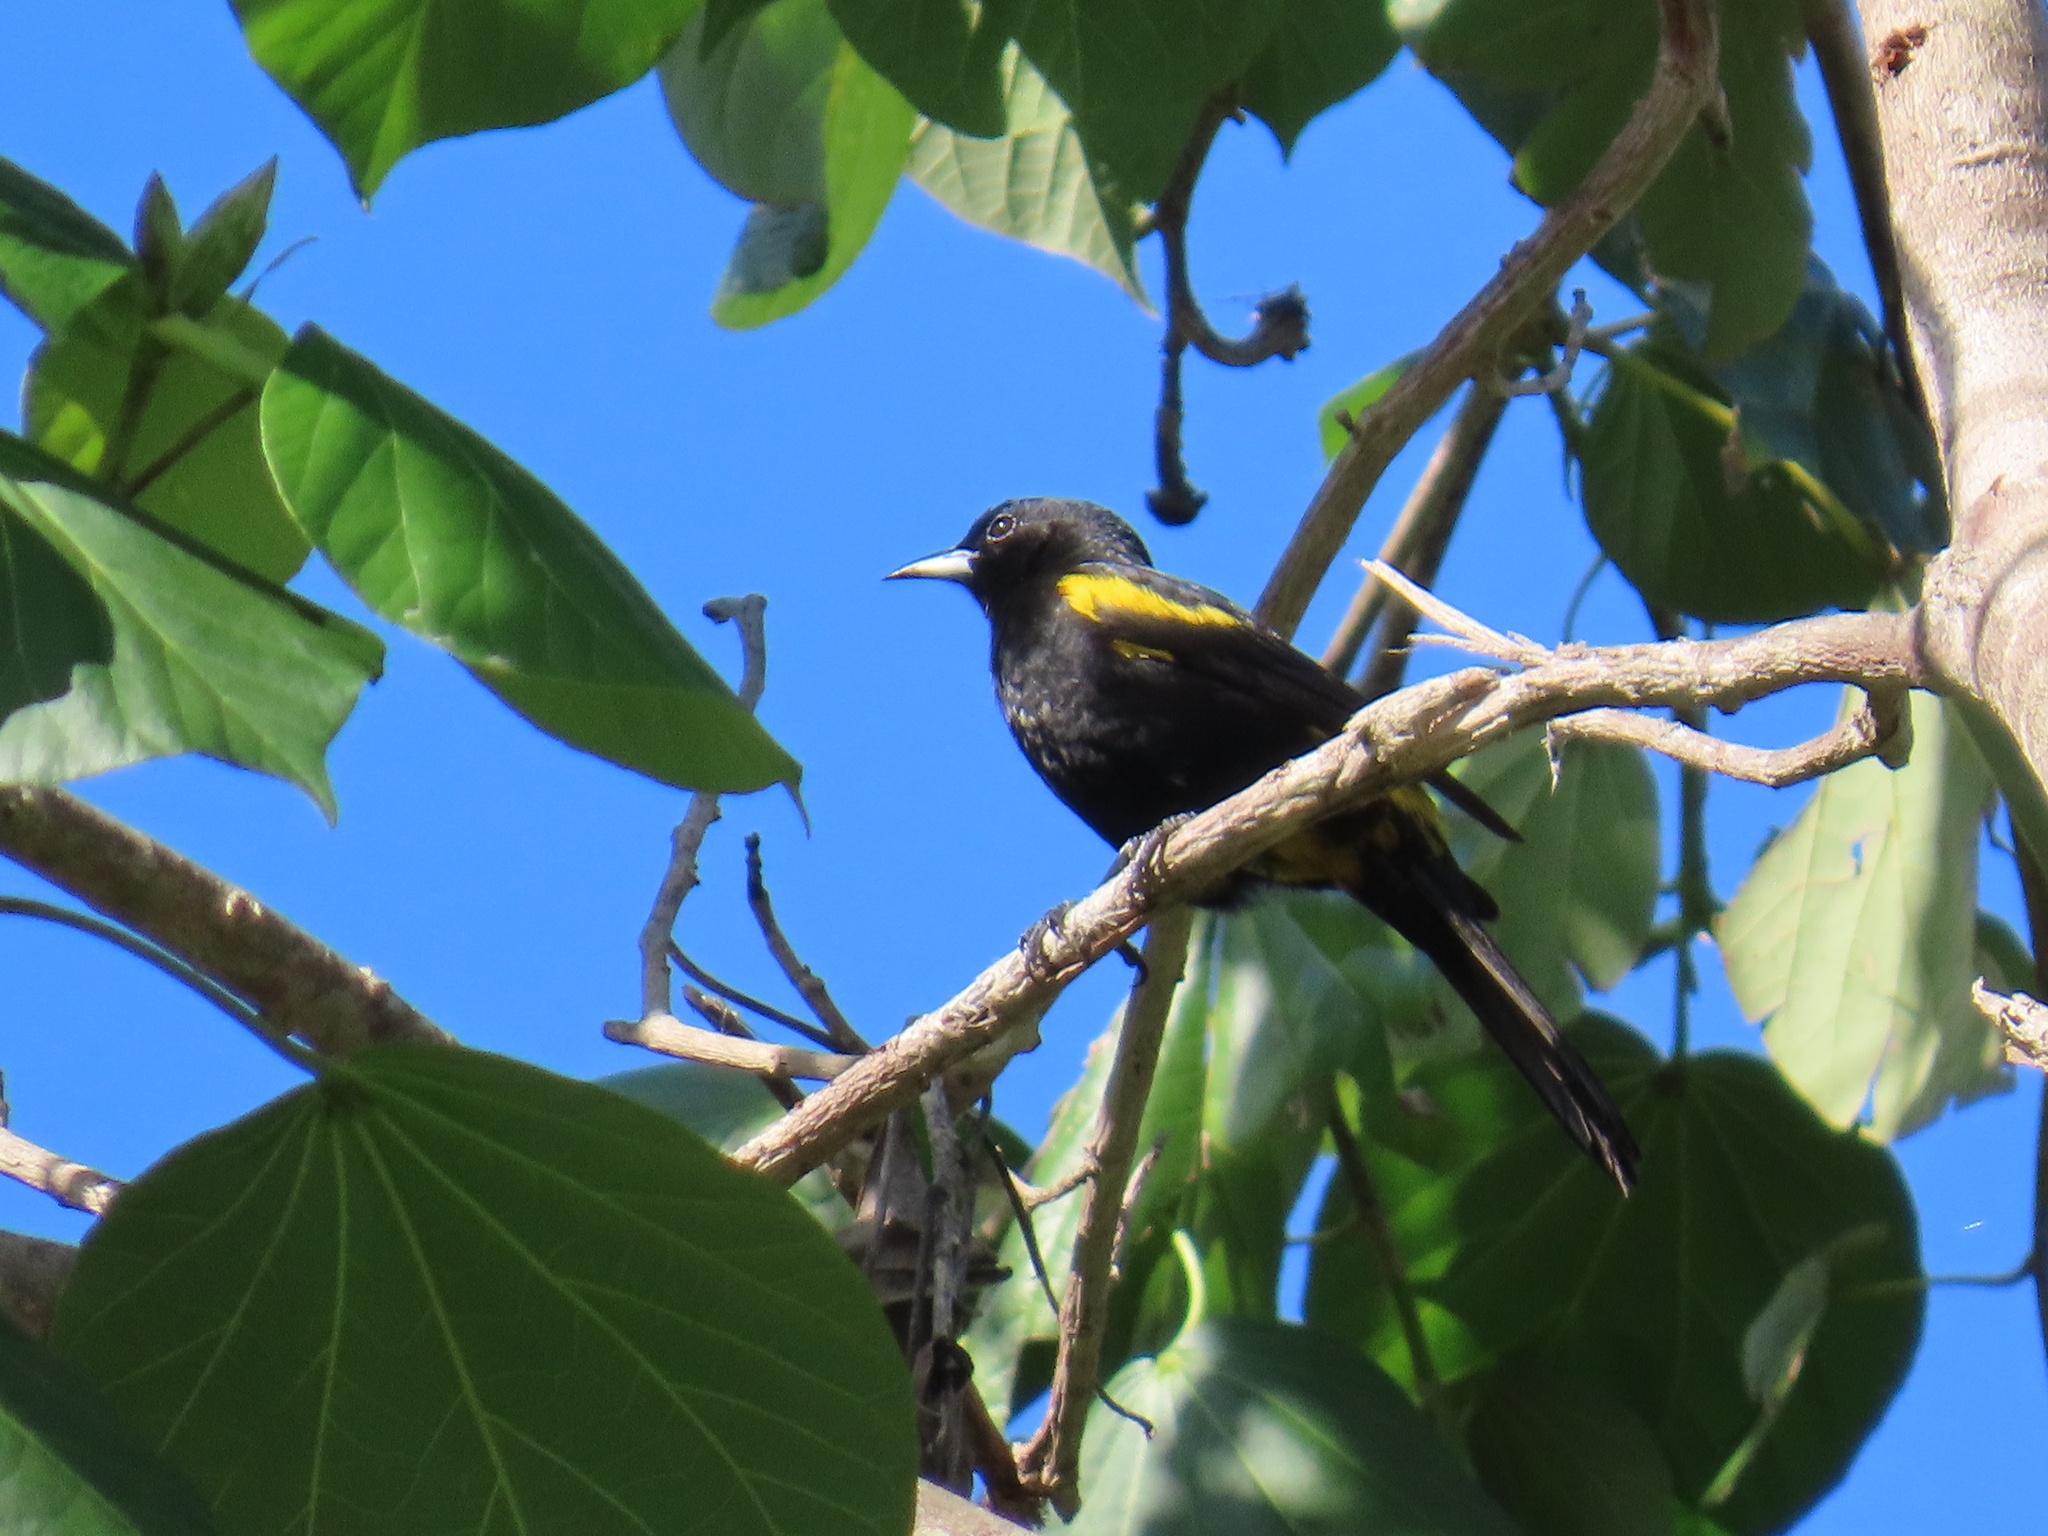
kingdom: Animalia
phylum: Chordata
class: Aves
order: Passeriformes
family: Icteridae
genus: Icterus
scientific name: Icterus dominicensis
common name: Hispaniolan oriole
